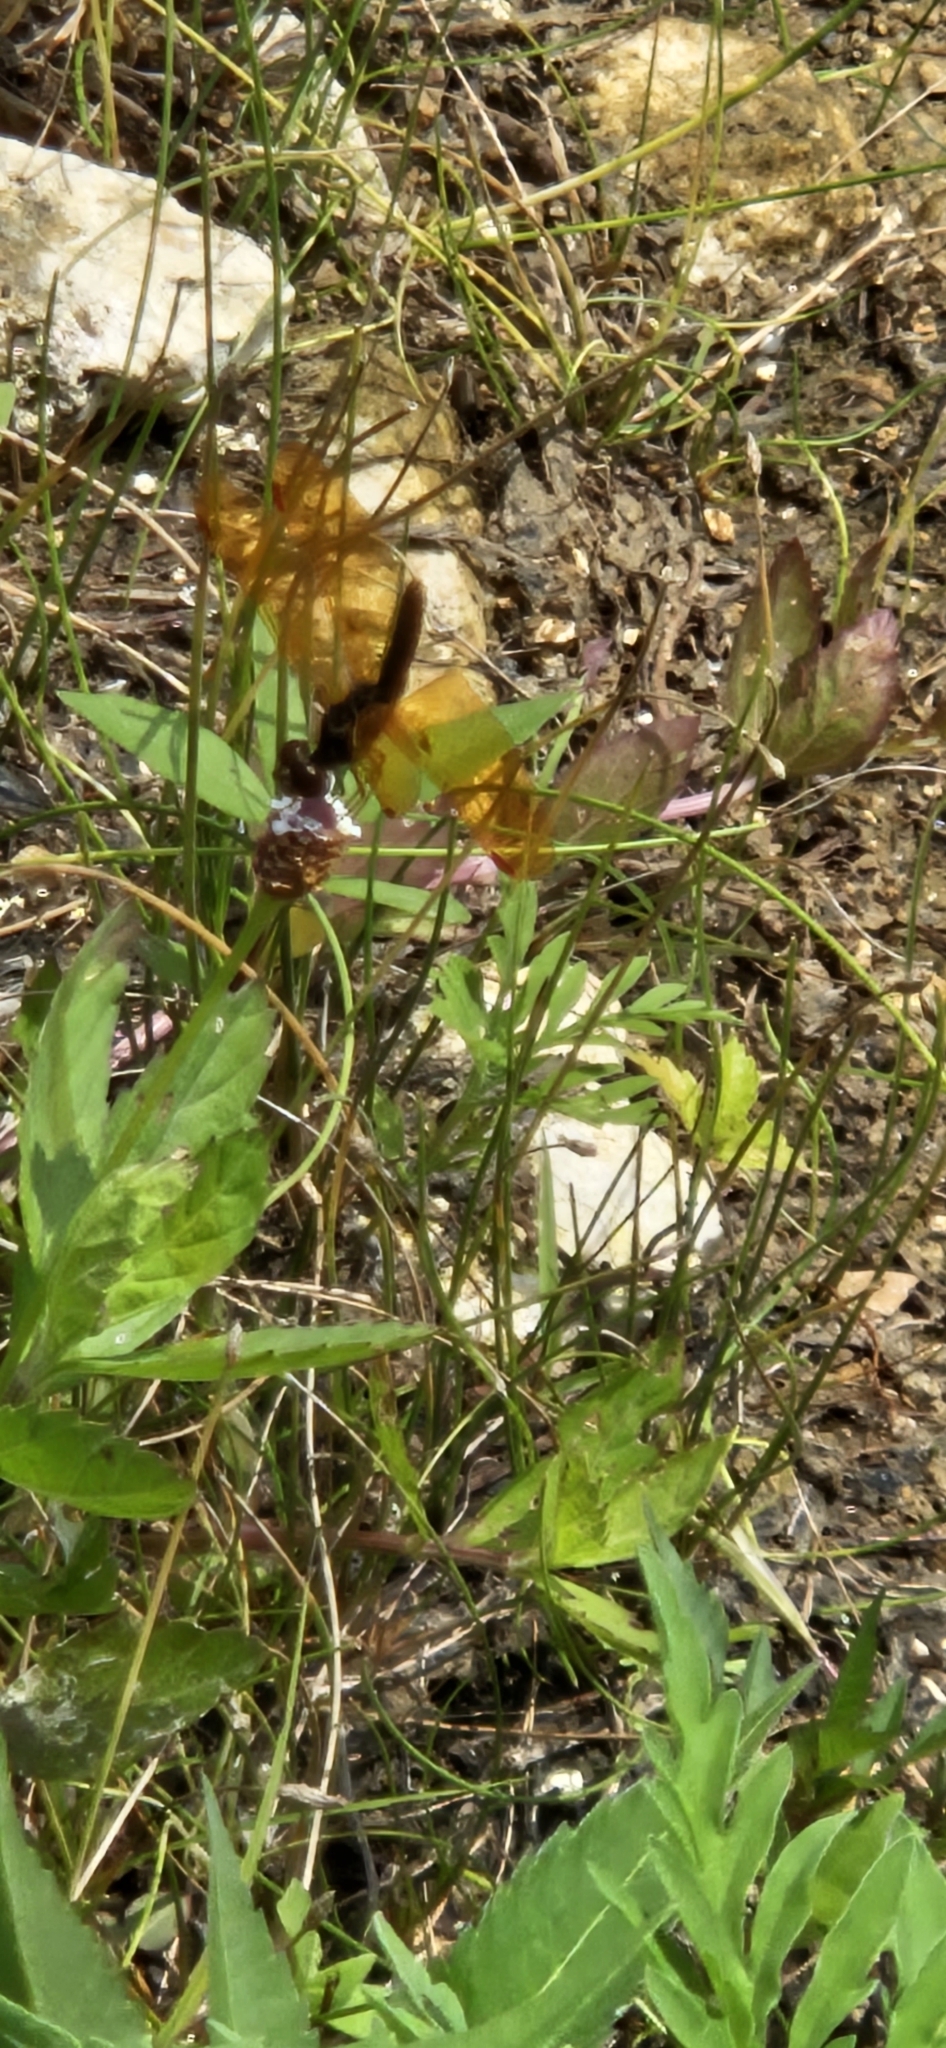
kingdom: Animalia
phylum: Arthropoda
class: Insecta
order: Odonata
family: Libellulidae
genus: Perithemis
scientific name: Perithemis tenera
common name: Eastern amberwing
